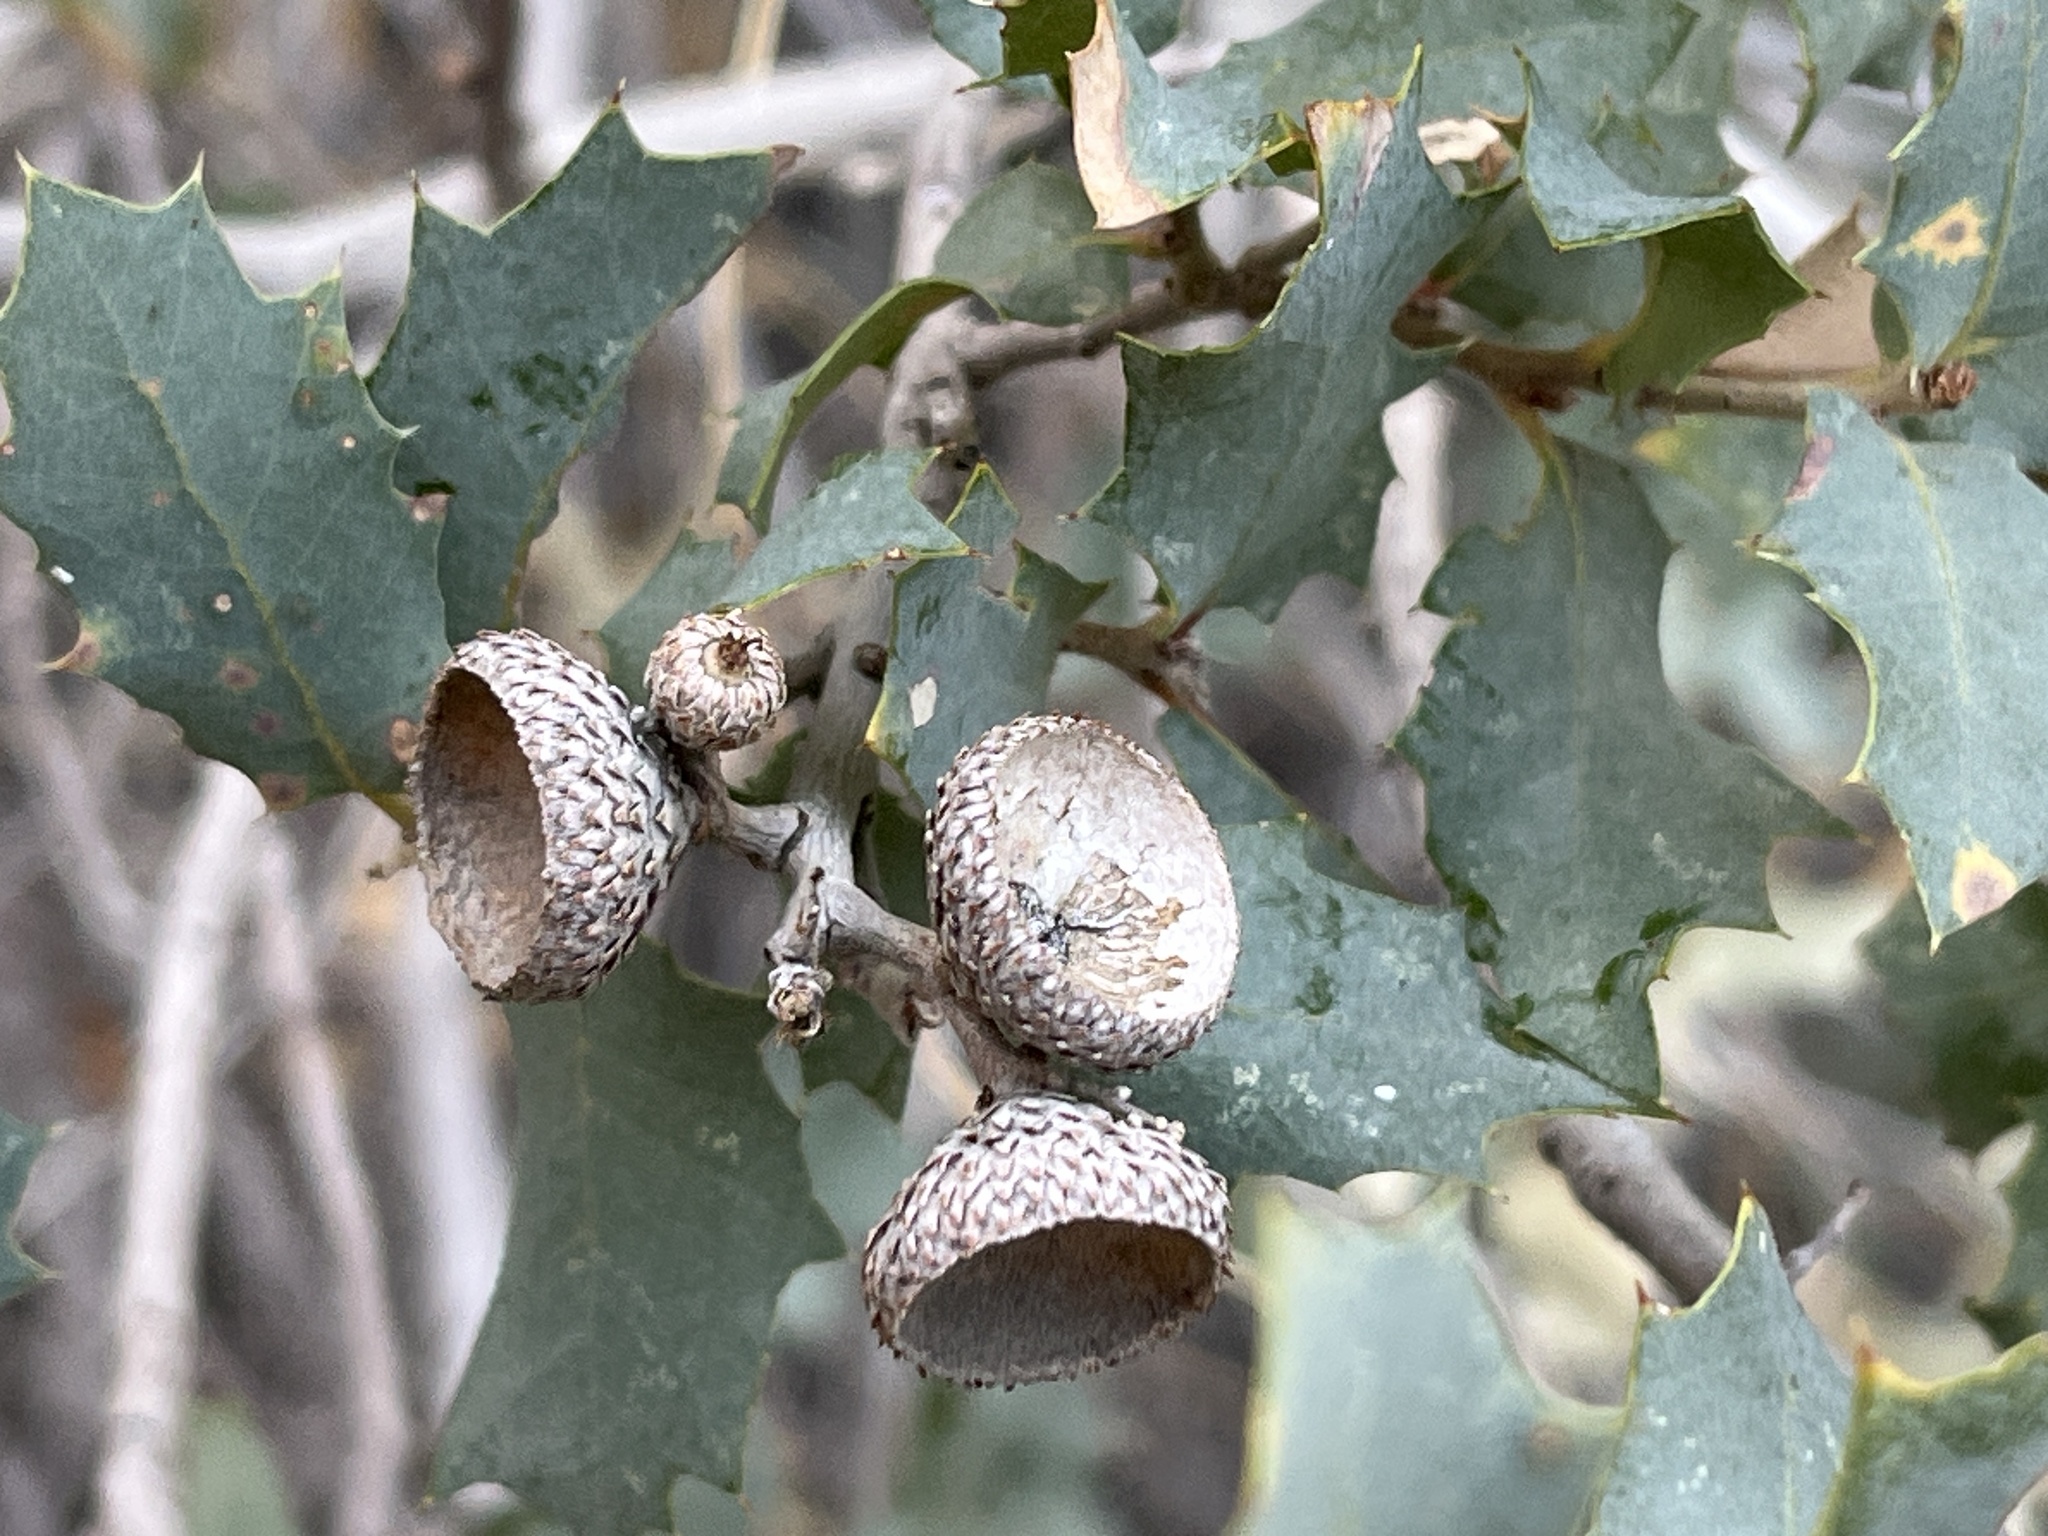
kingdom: Plantae
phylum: Tracheophyta
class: Magnoliopsida
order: Fagales
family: Fagaceae
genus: Quercus
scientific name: Quercus turbinella
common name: Sonoran scrub oak
